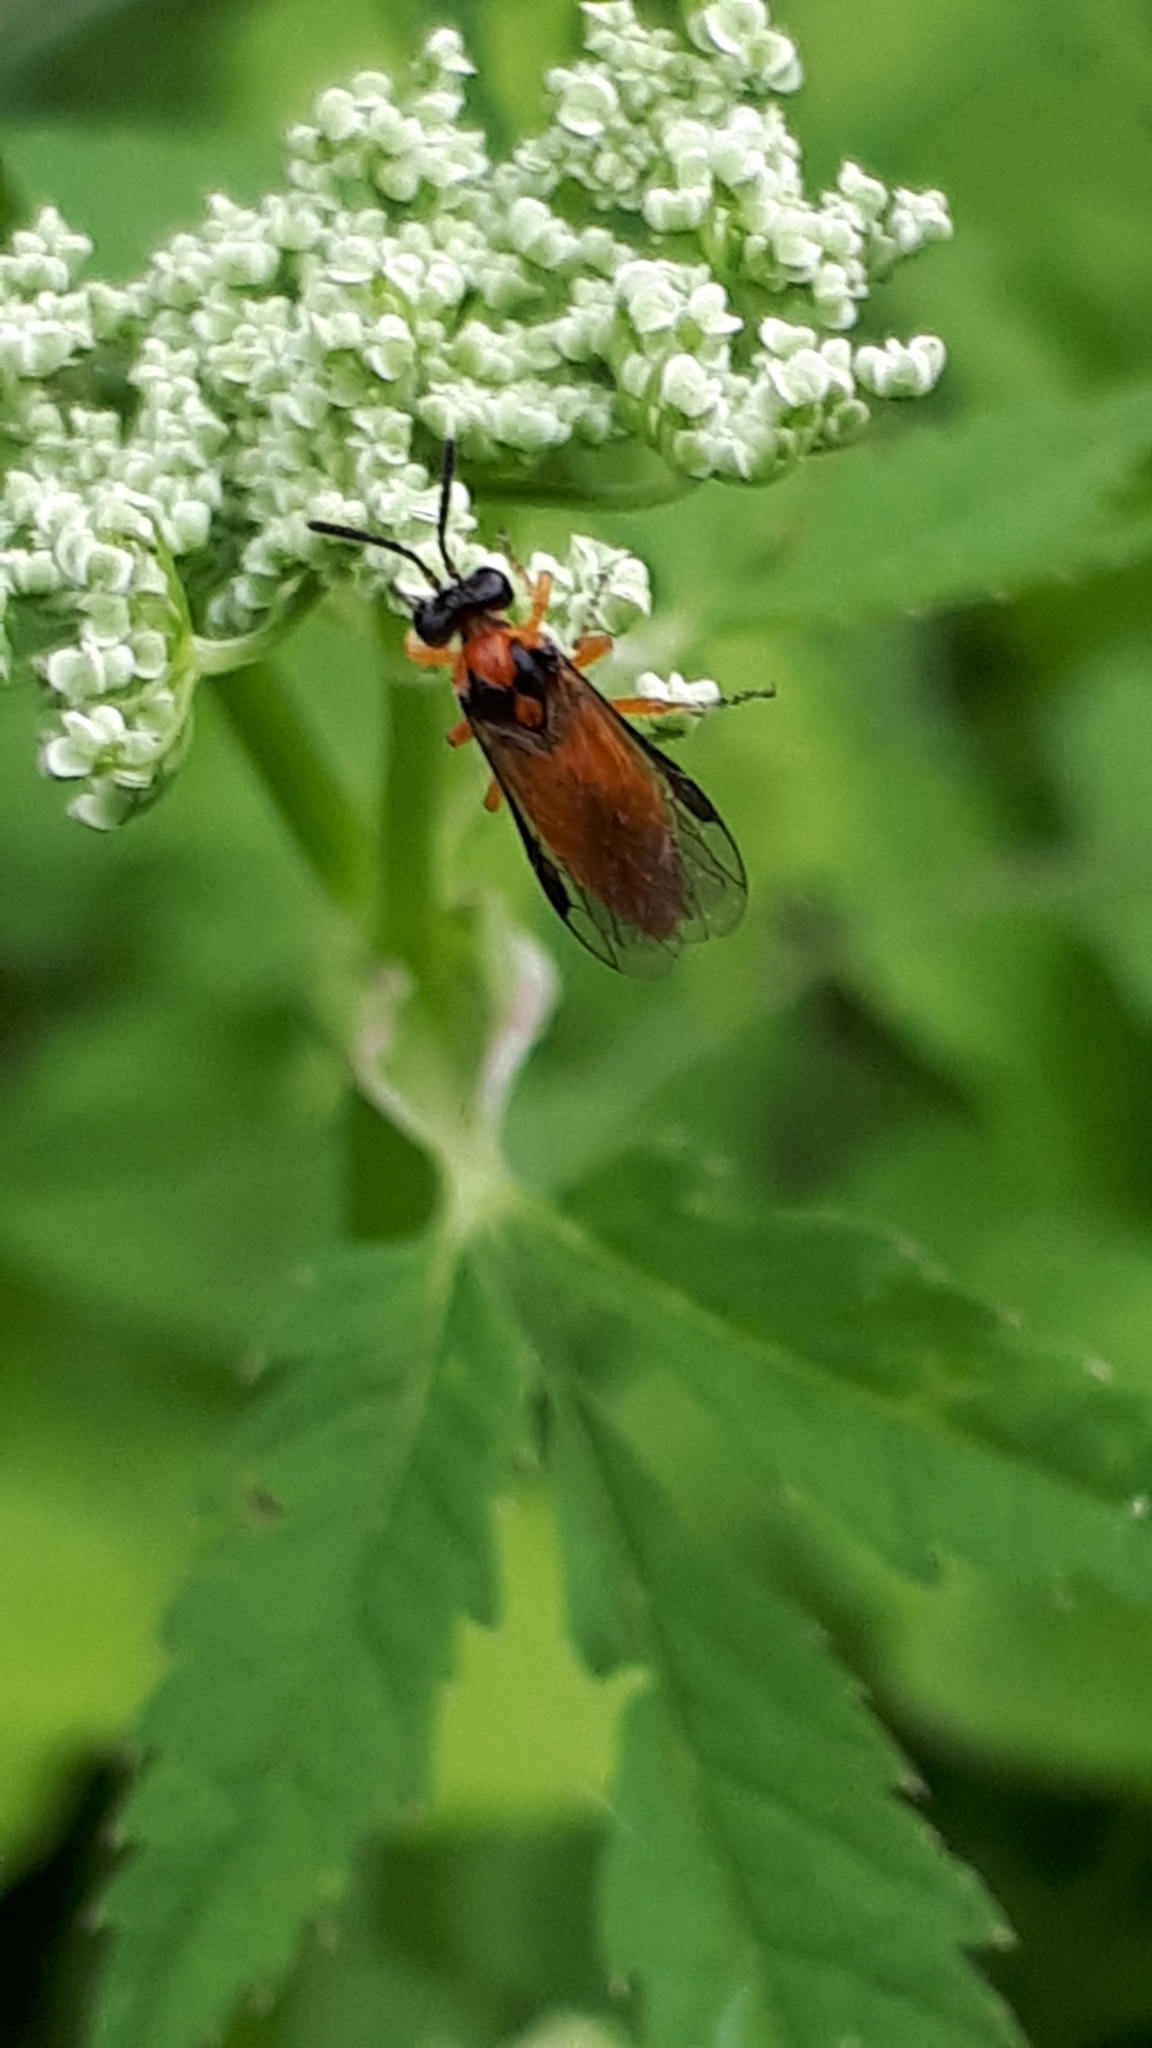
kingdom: Animalia
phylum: Arthropoda
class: Insecta
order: Hymenoptera
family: Tenthredinidae
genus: Athalia
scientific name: Athalia rosae
